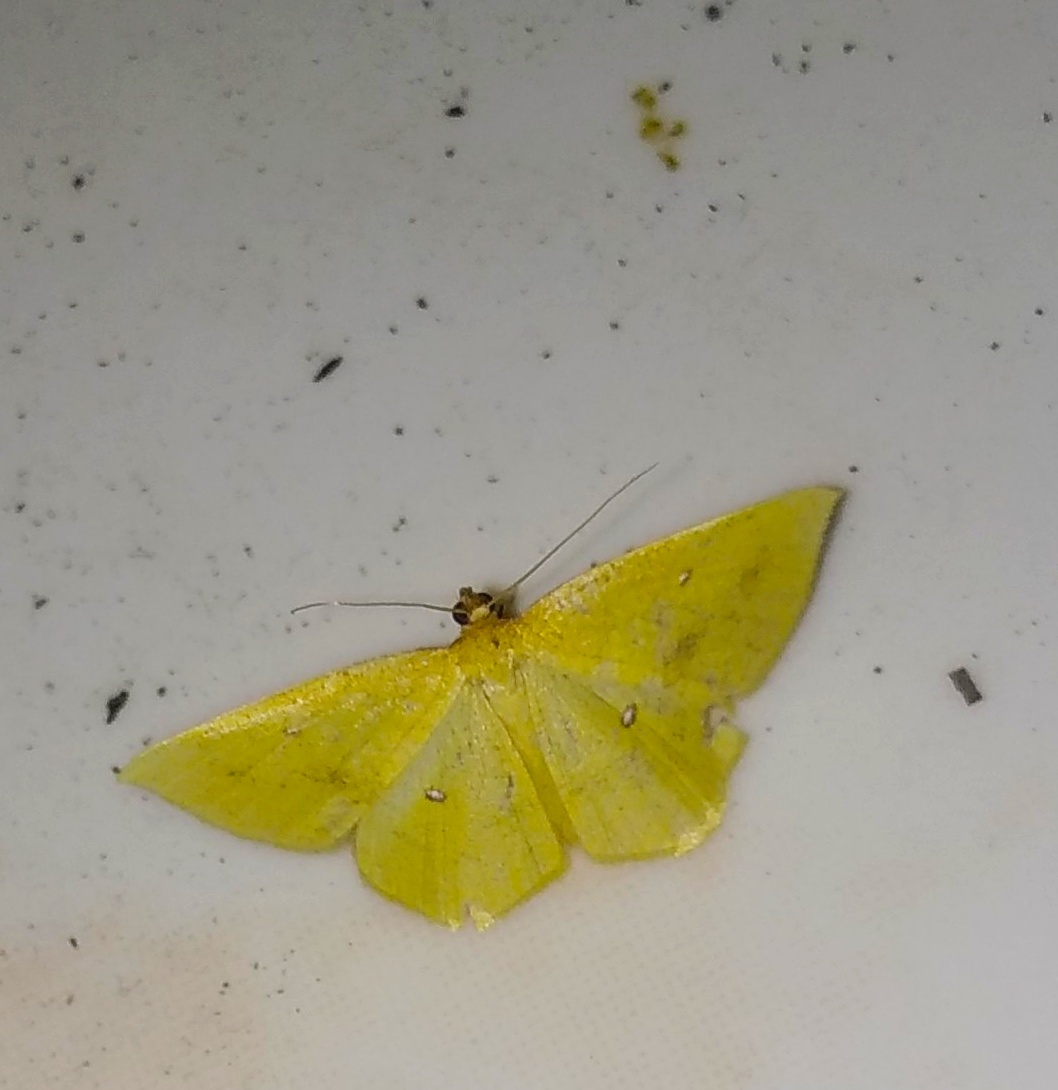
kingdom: Animalia
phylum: Arthropoda
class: Insecta
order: Lepidoptera
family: Geometridae
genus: Palaeaspilates
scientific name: Palaeaspilates Anisephyra ocularia
